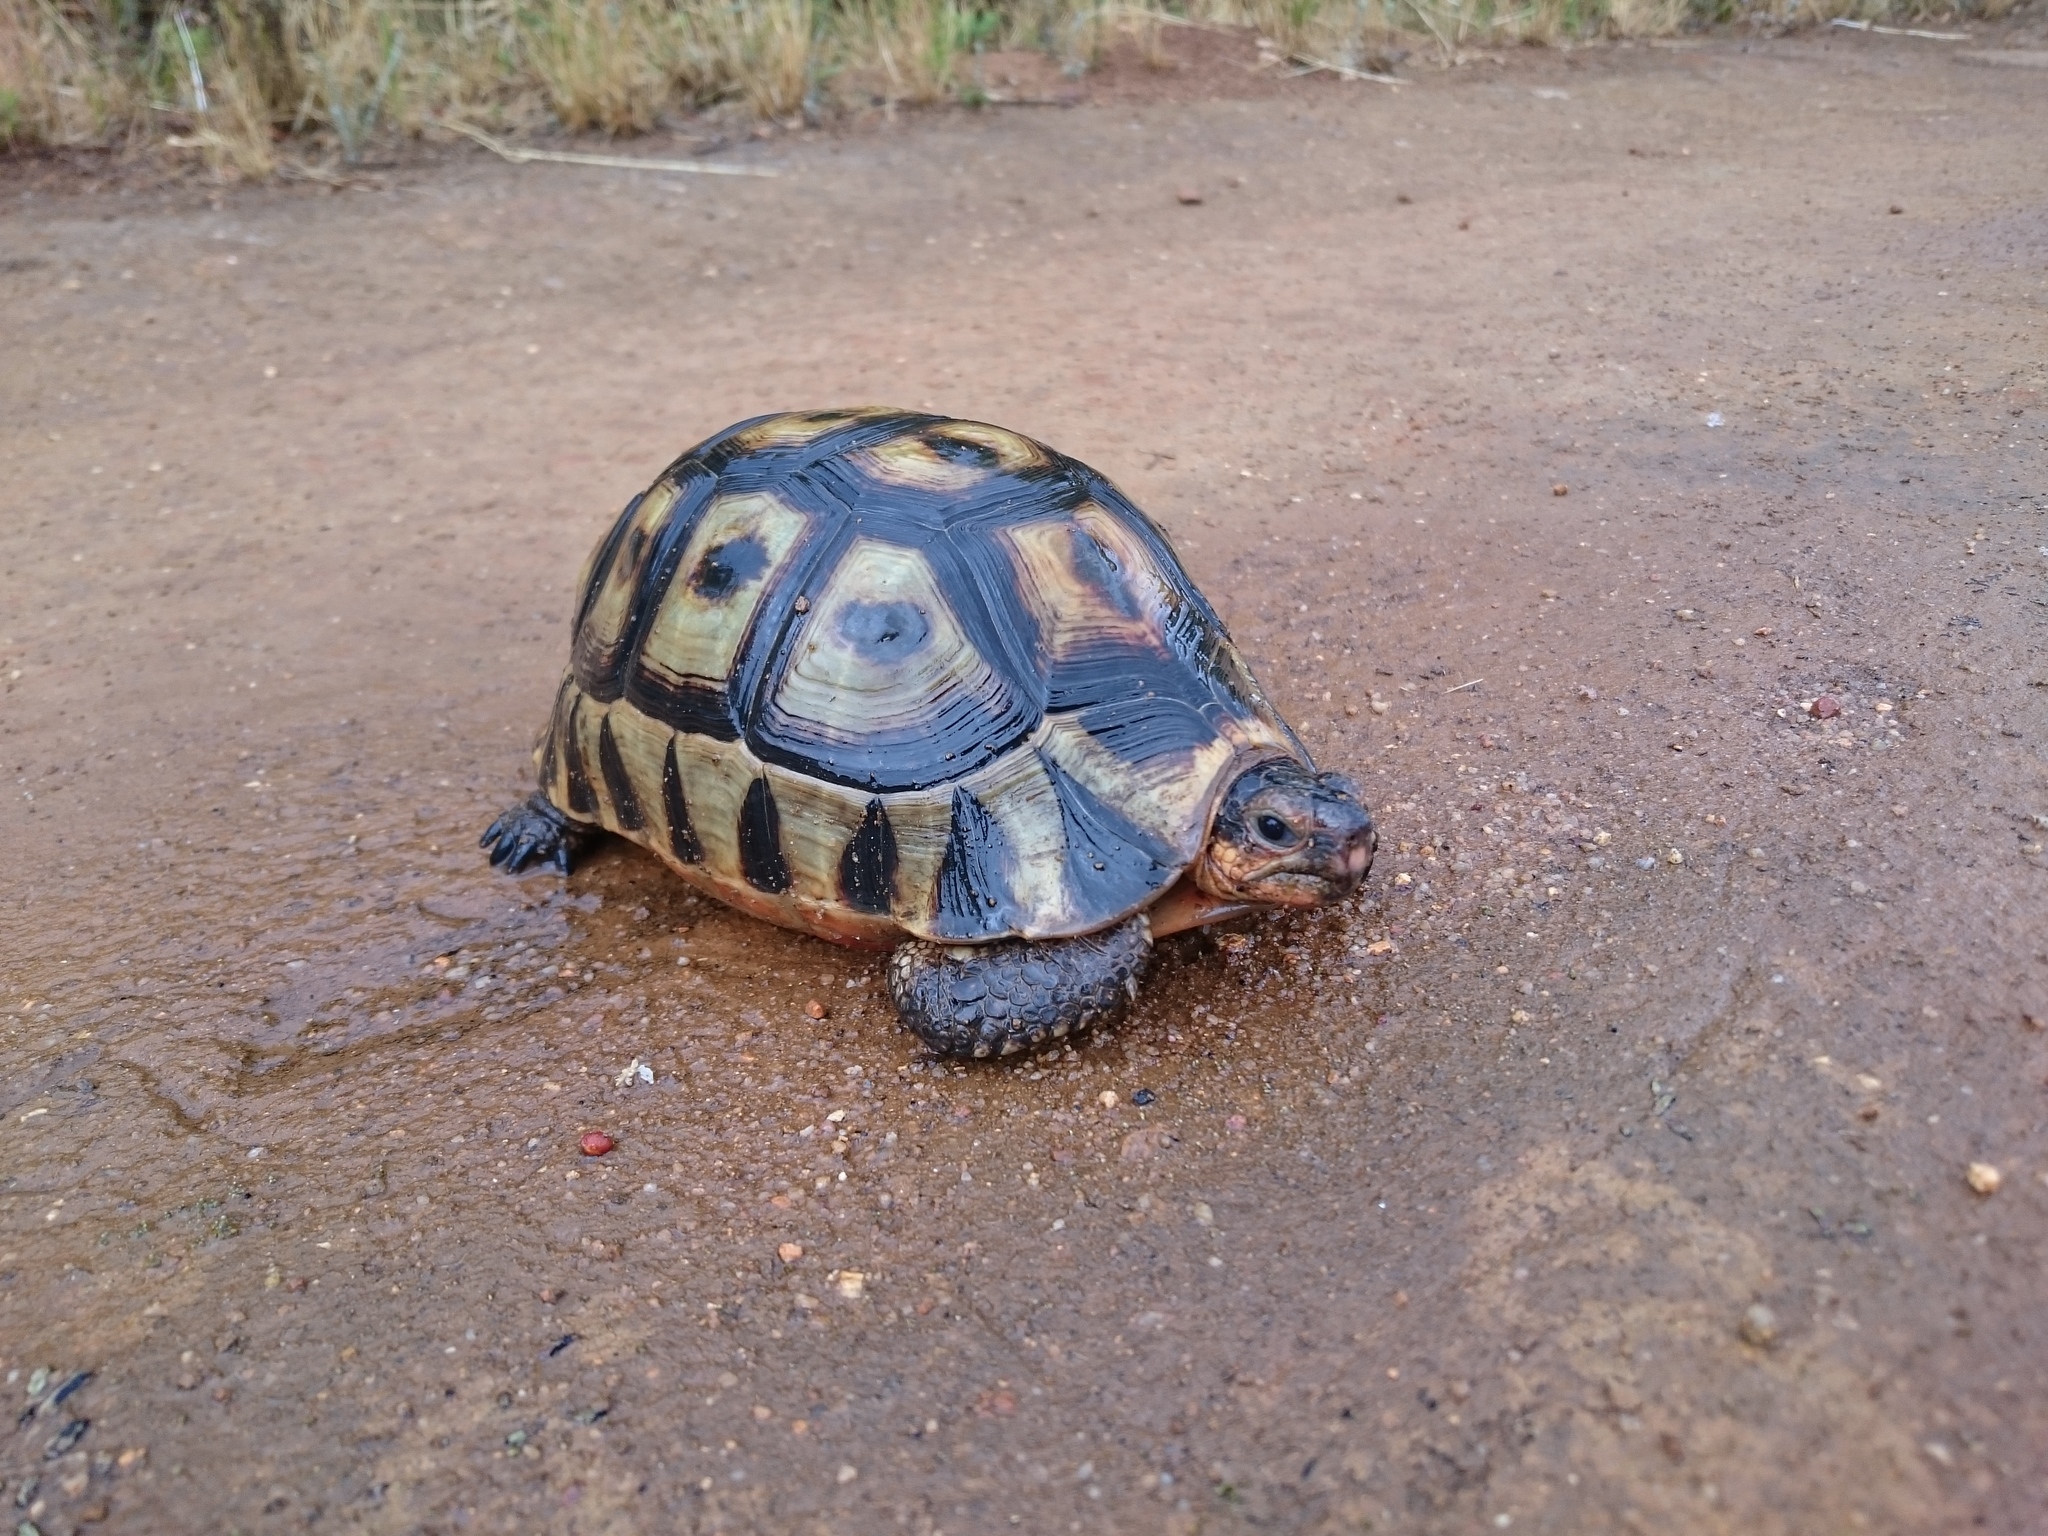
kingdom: Animalia
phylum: Chordata
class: Testudines
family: Testudinidae
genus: Chersina
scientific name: Chersina angulata
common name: South african bowsprit tortoise
